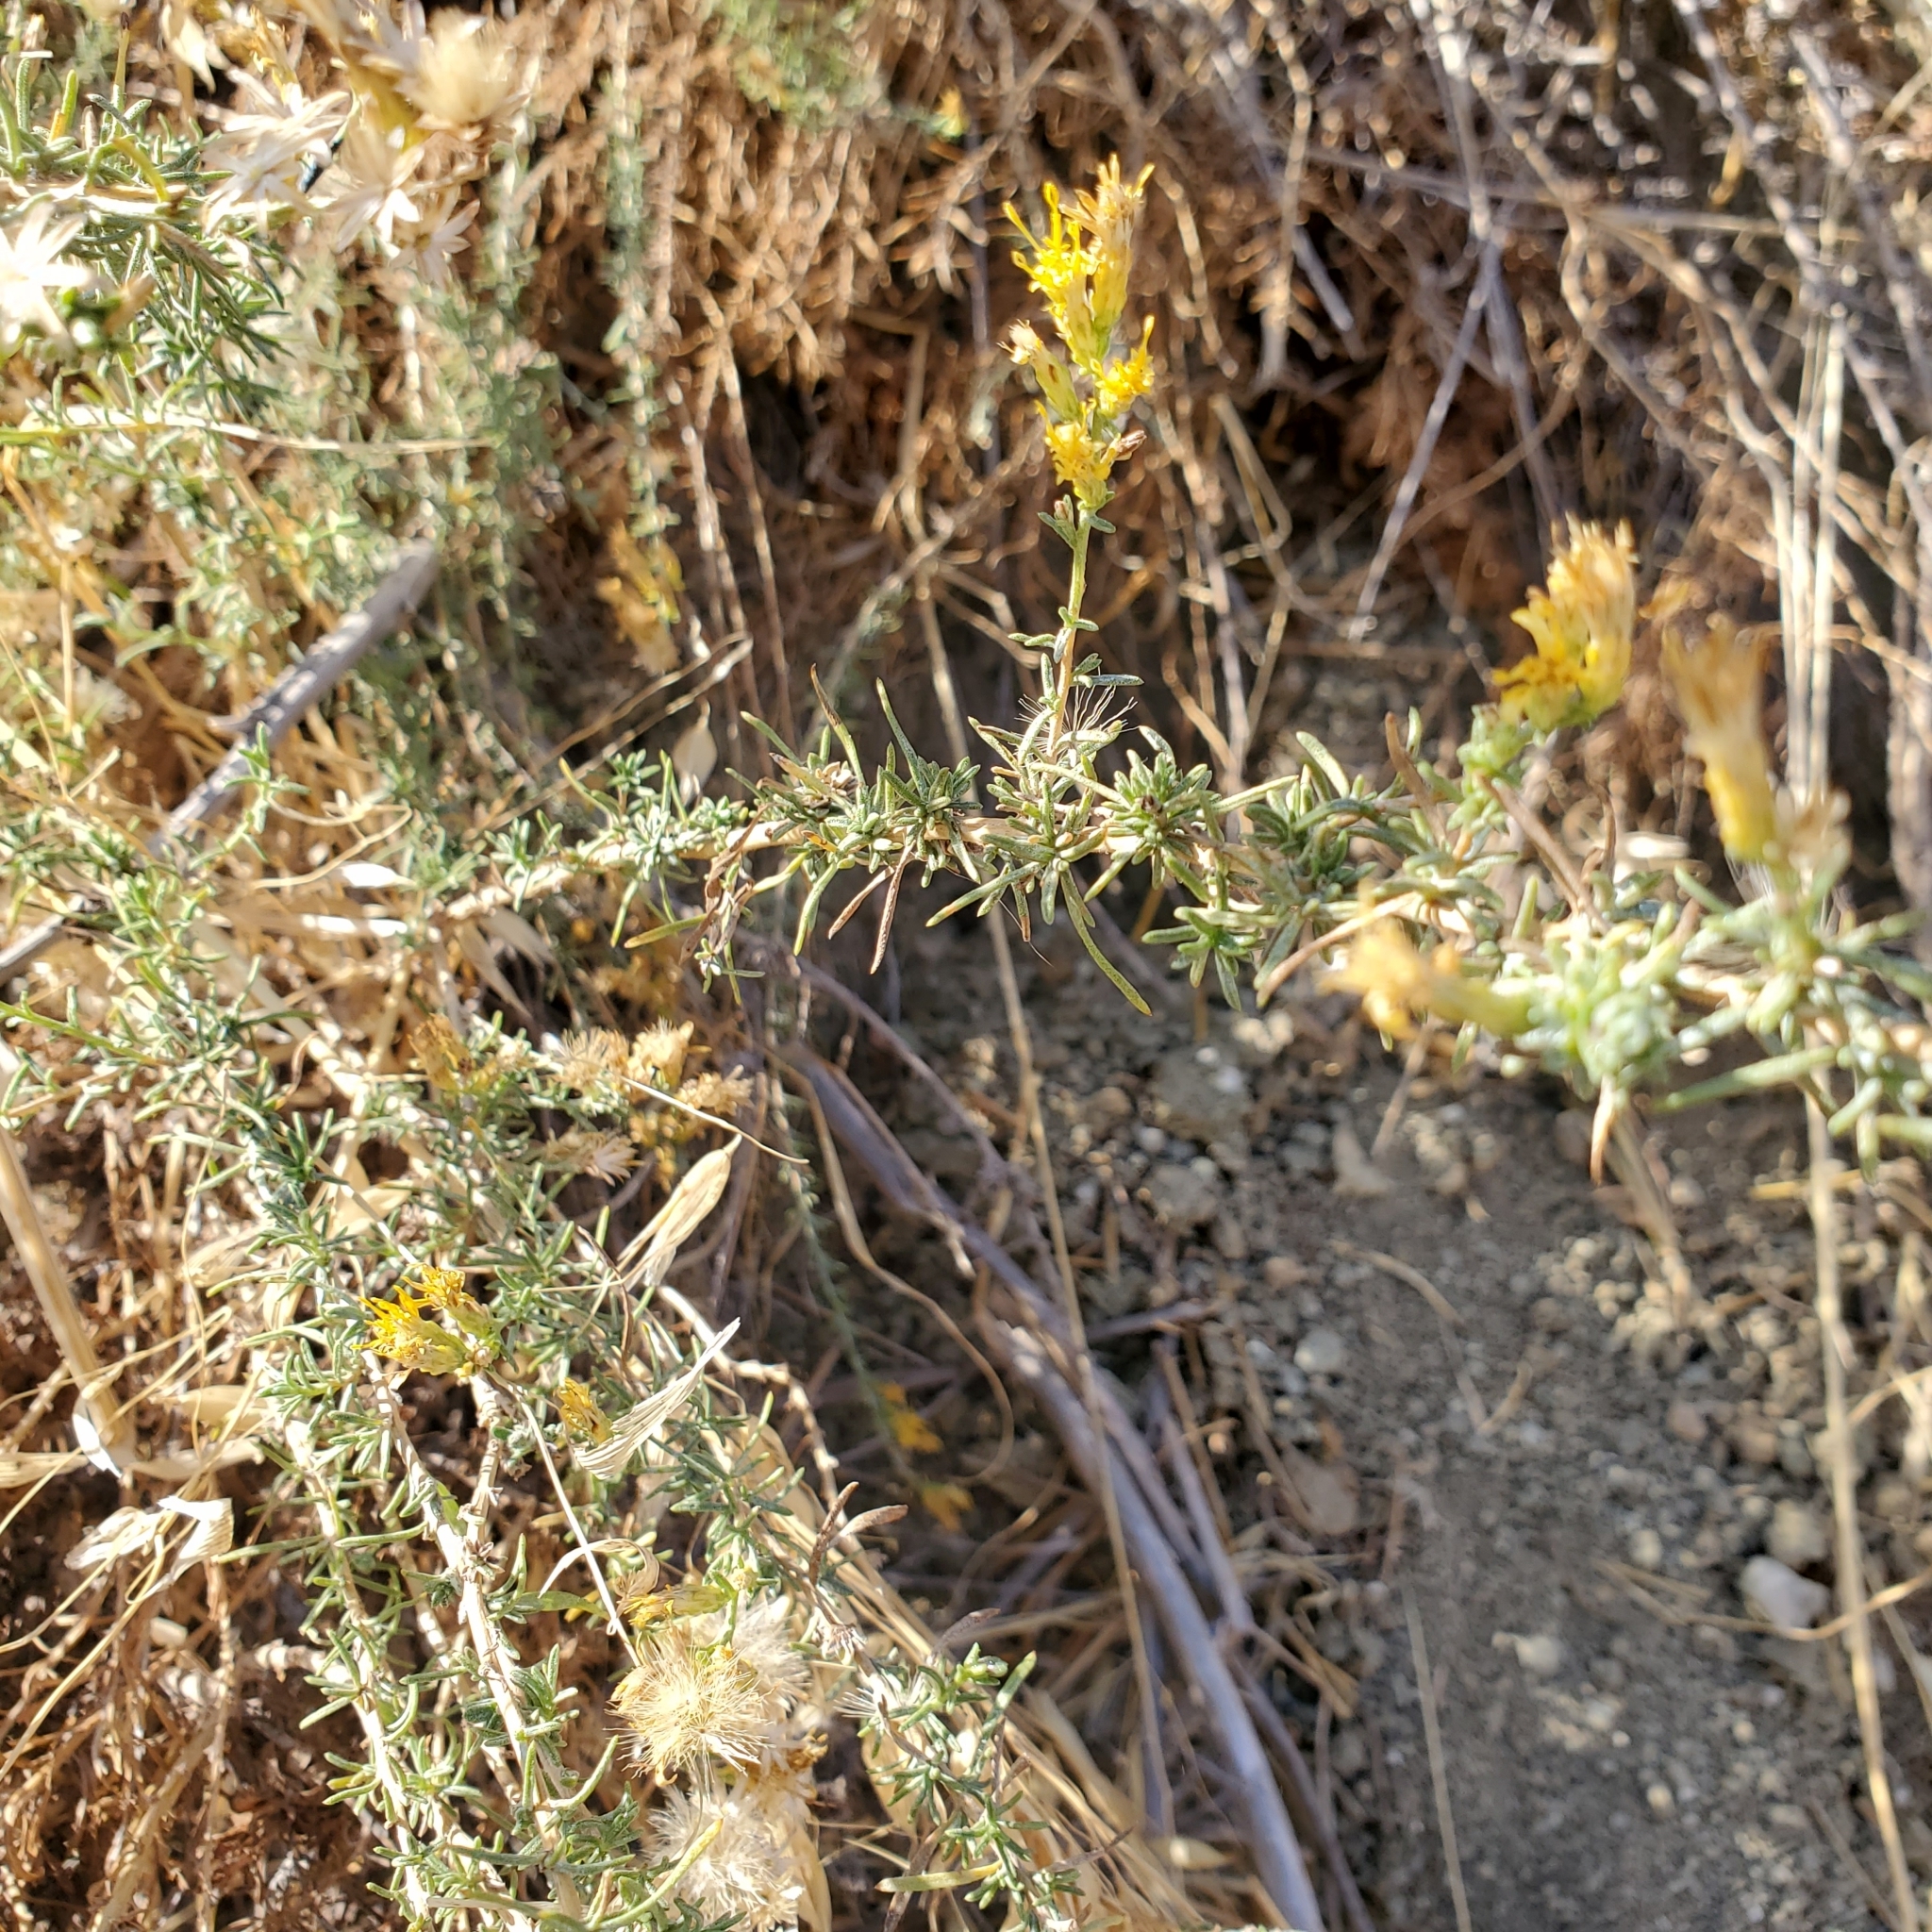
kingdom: Plantae
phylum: Tracheophyta
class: Magnoliopsida
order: Asterales
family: Asteraceae
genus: Ericameria
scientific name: Ericameria palmeri
